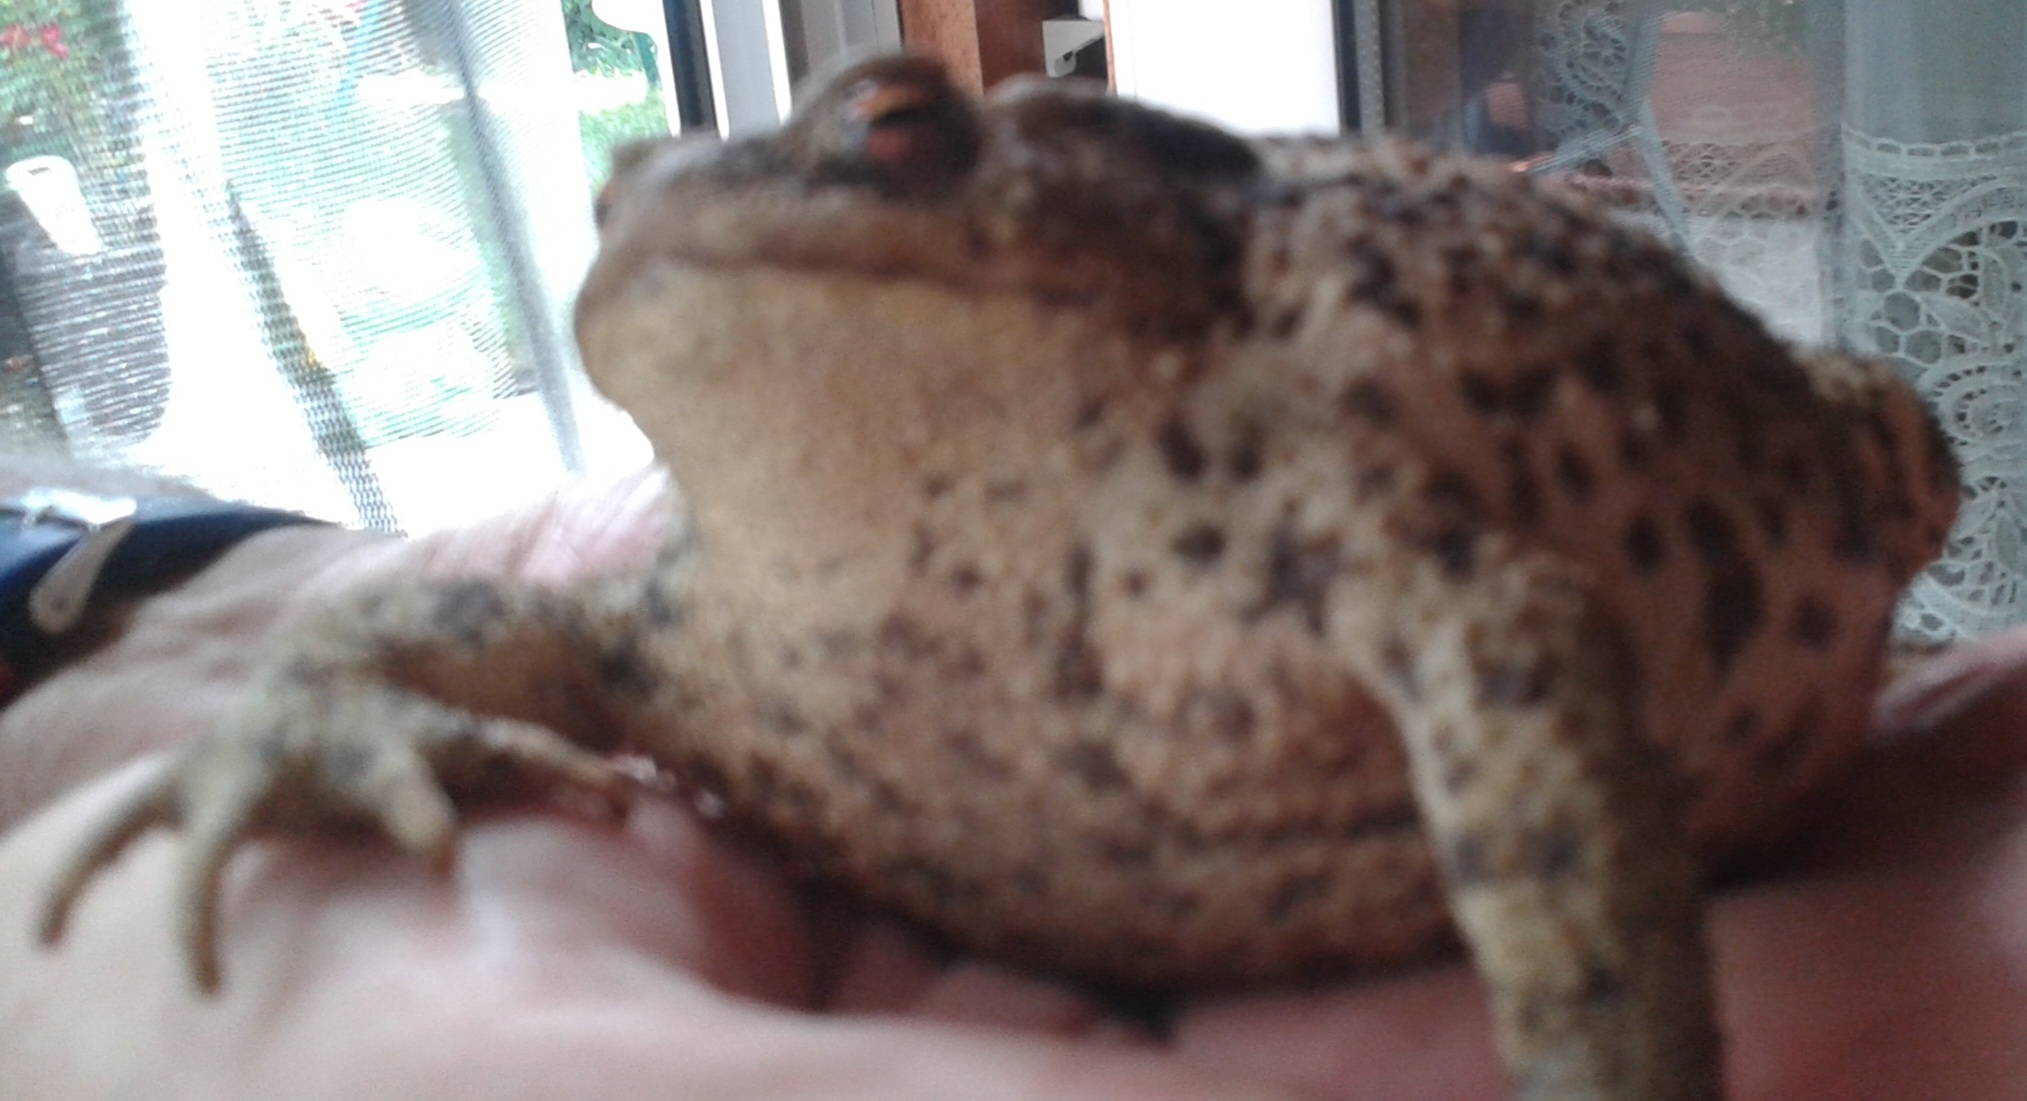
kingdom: Animalia
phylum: Chordata
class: Amphibia
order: Anura
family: Bufonidae
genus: Bufo
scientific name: Bufo bufo
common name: Common toad
